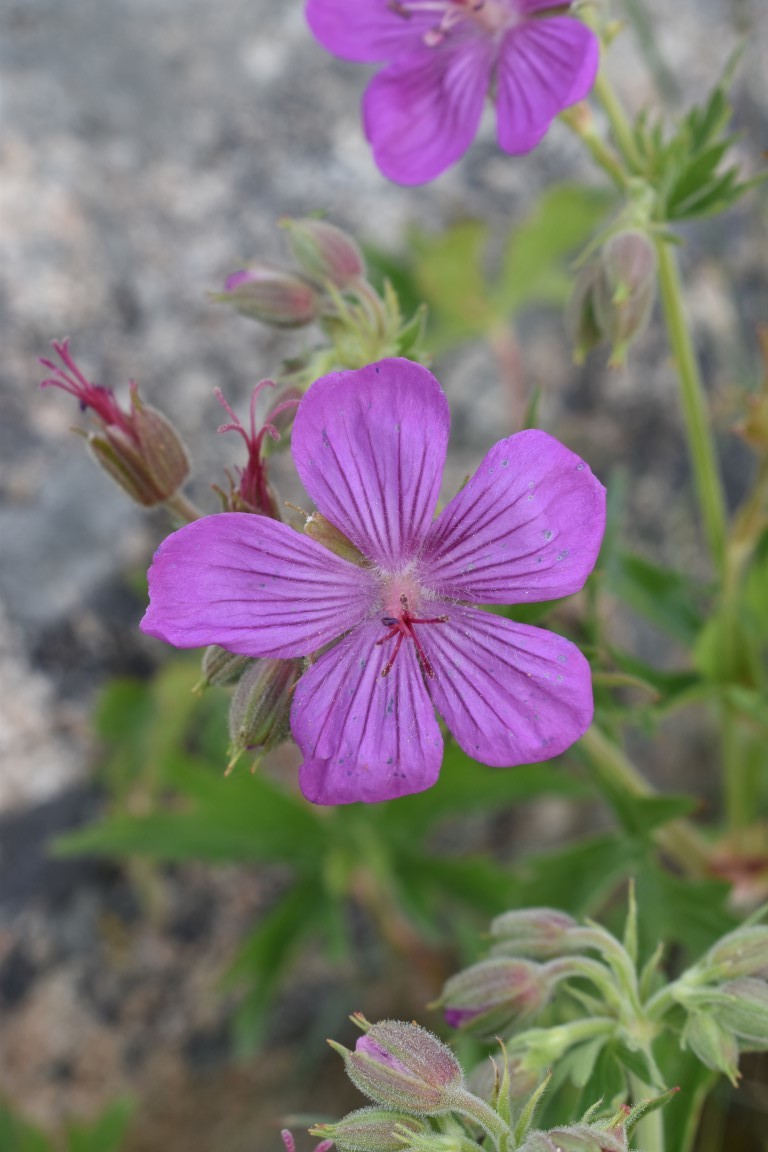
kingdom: Plantae
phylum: Tracheophyta
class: Magnoliopsida
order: Geraniales
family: Geraniaceae
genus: Geranium
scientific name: Geranium viscosissimum
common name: Purple geranium
